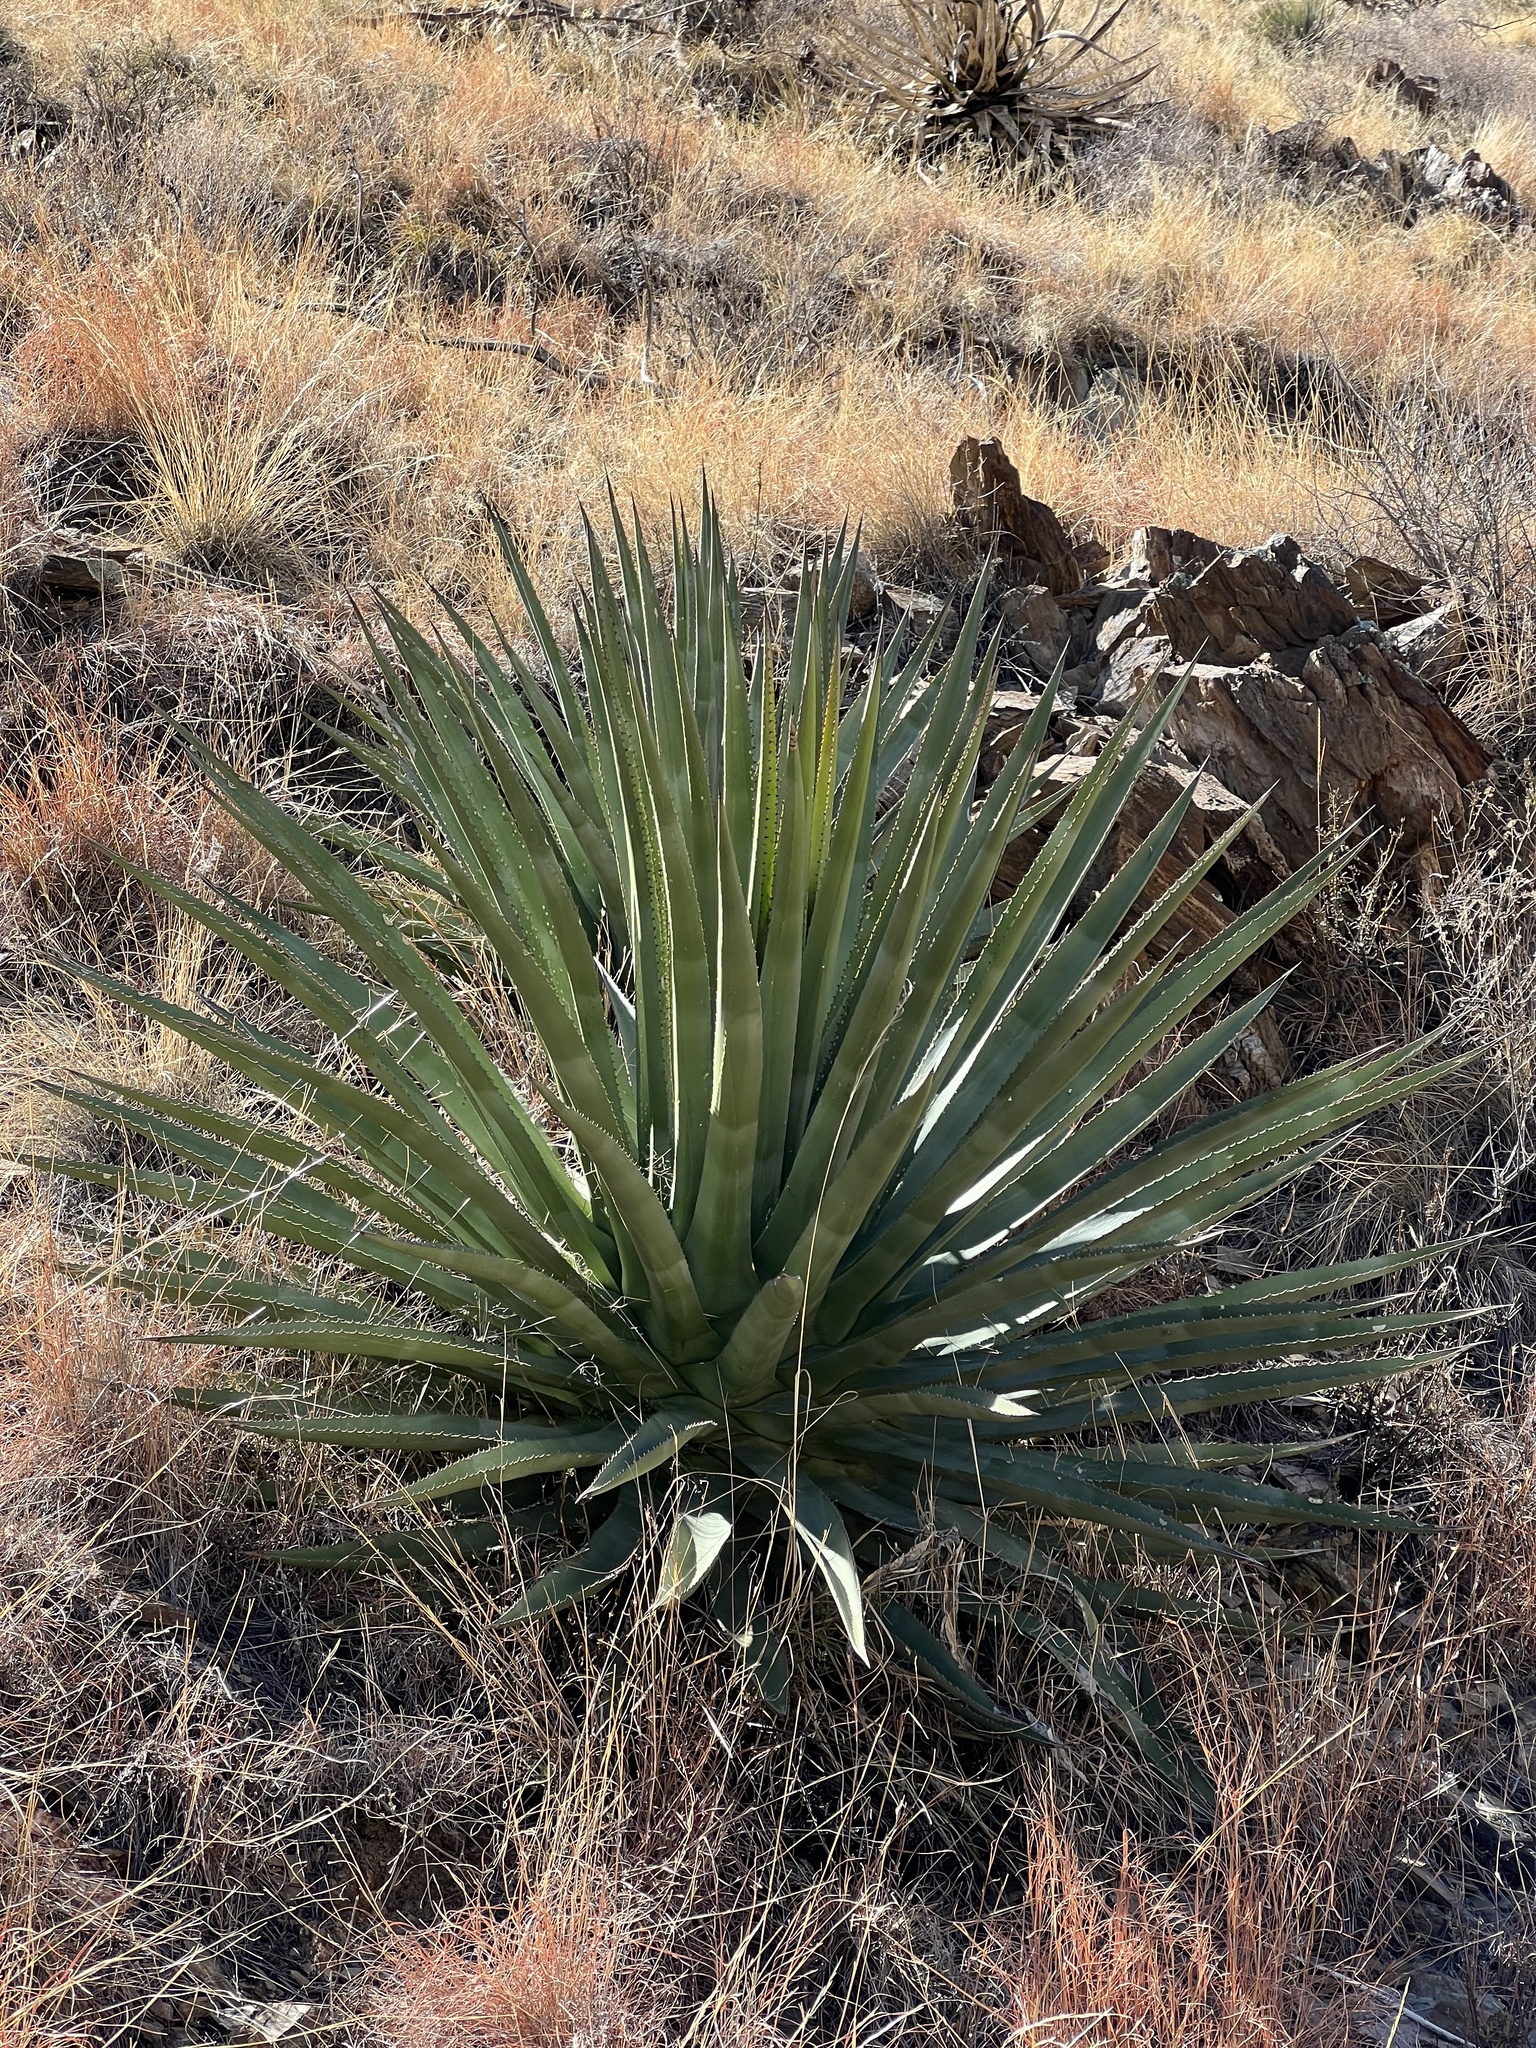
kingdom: Plantae
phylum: Tracheophyta
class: Liliopsida
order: Asparagales
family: Asparagaceae
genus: Agave
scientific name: Agave palmeri
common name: Palmer agave
